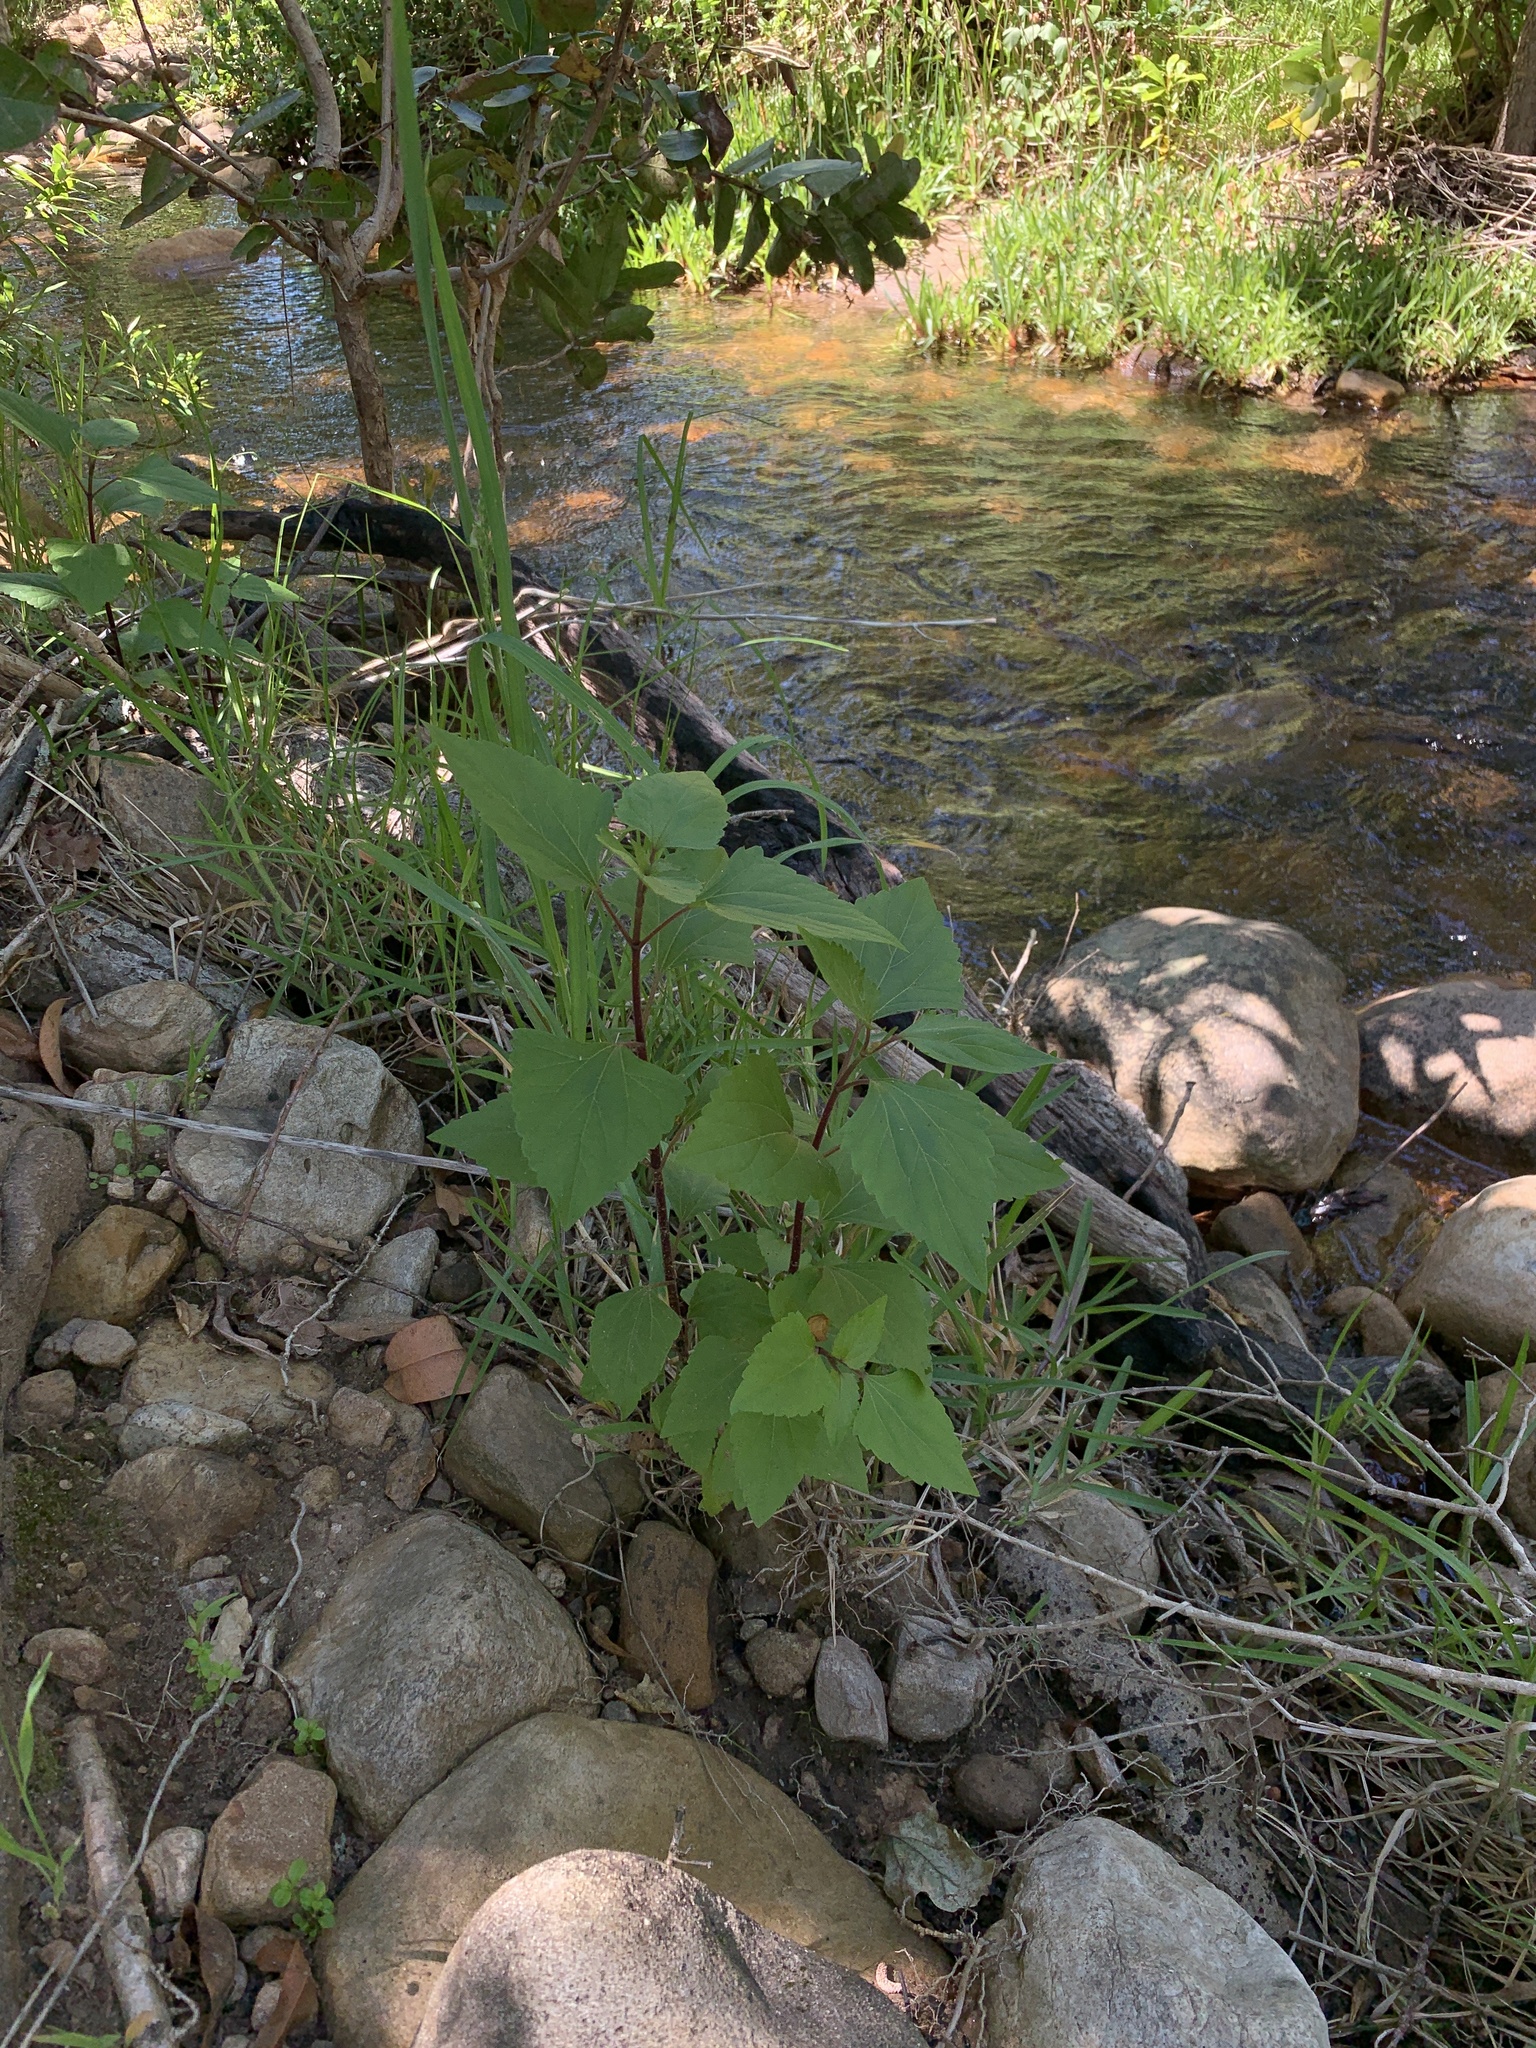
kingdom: Plantae
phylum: Tracheophyta
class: Magnoliopsida
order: Asterales
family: Asteraceae
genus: Ageratina
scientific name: Ageratina adenophora
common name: Sticky snakeroot
